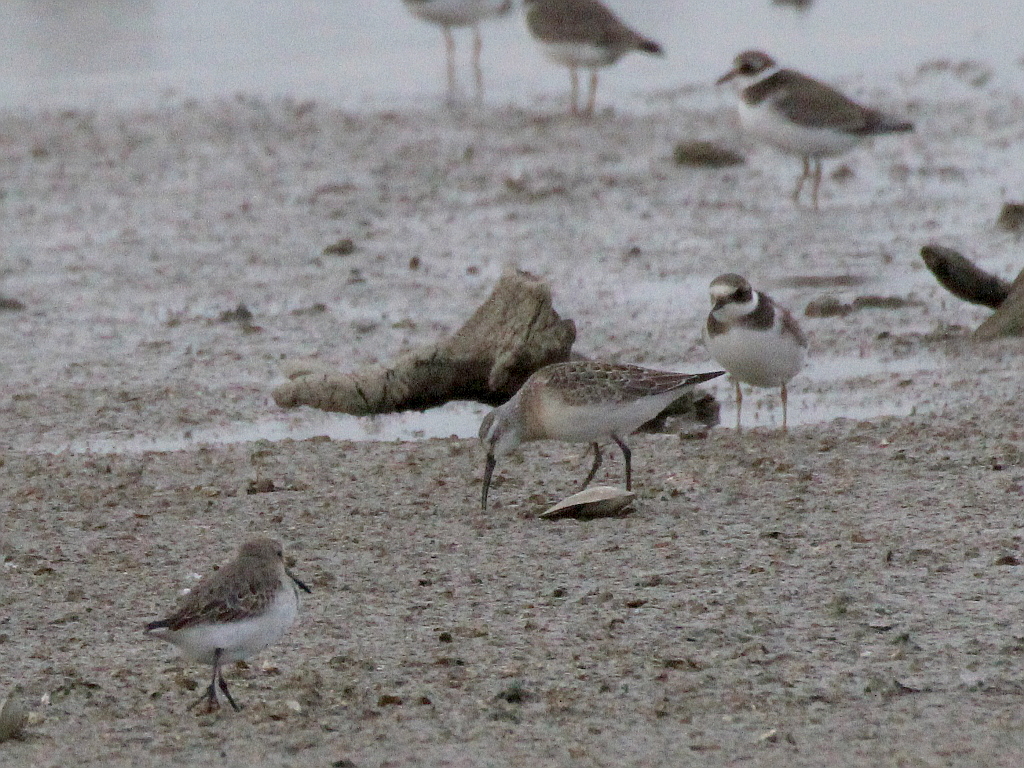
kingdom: Animalia
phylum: Chordata
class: Aves
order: Charadriiformes
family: Scolopacidae
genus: Calidris
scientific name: Calidris ferruginea
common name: Curlew sandpiper
